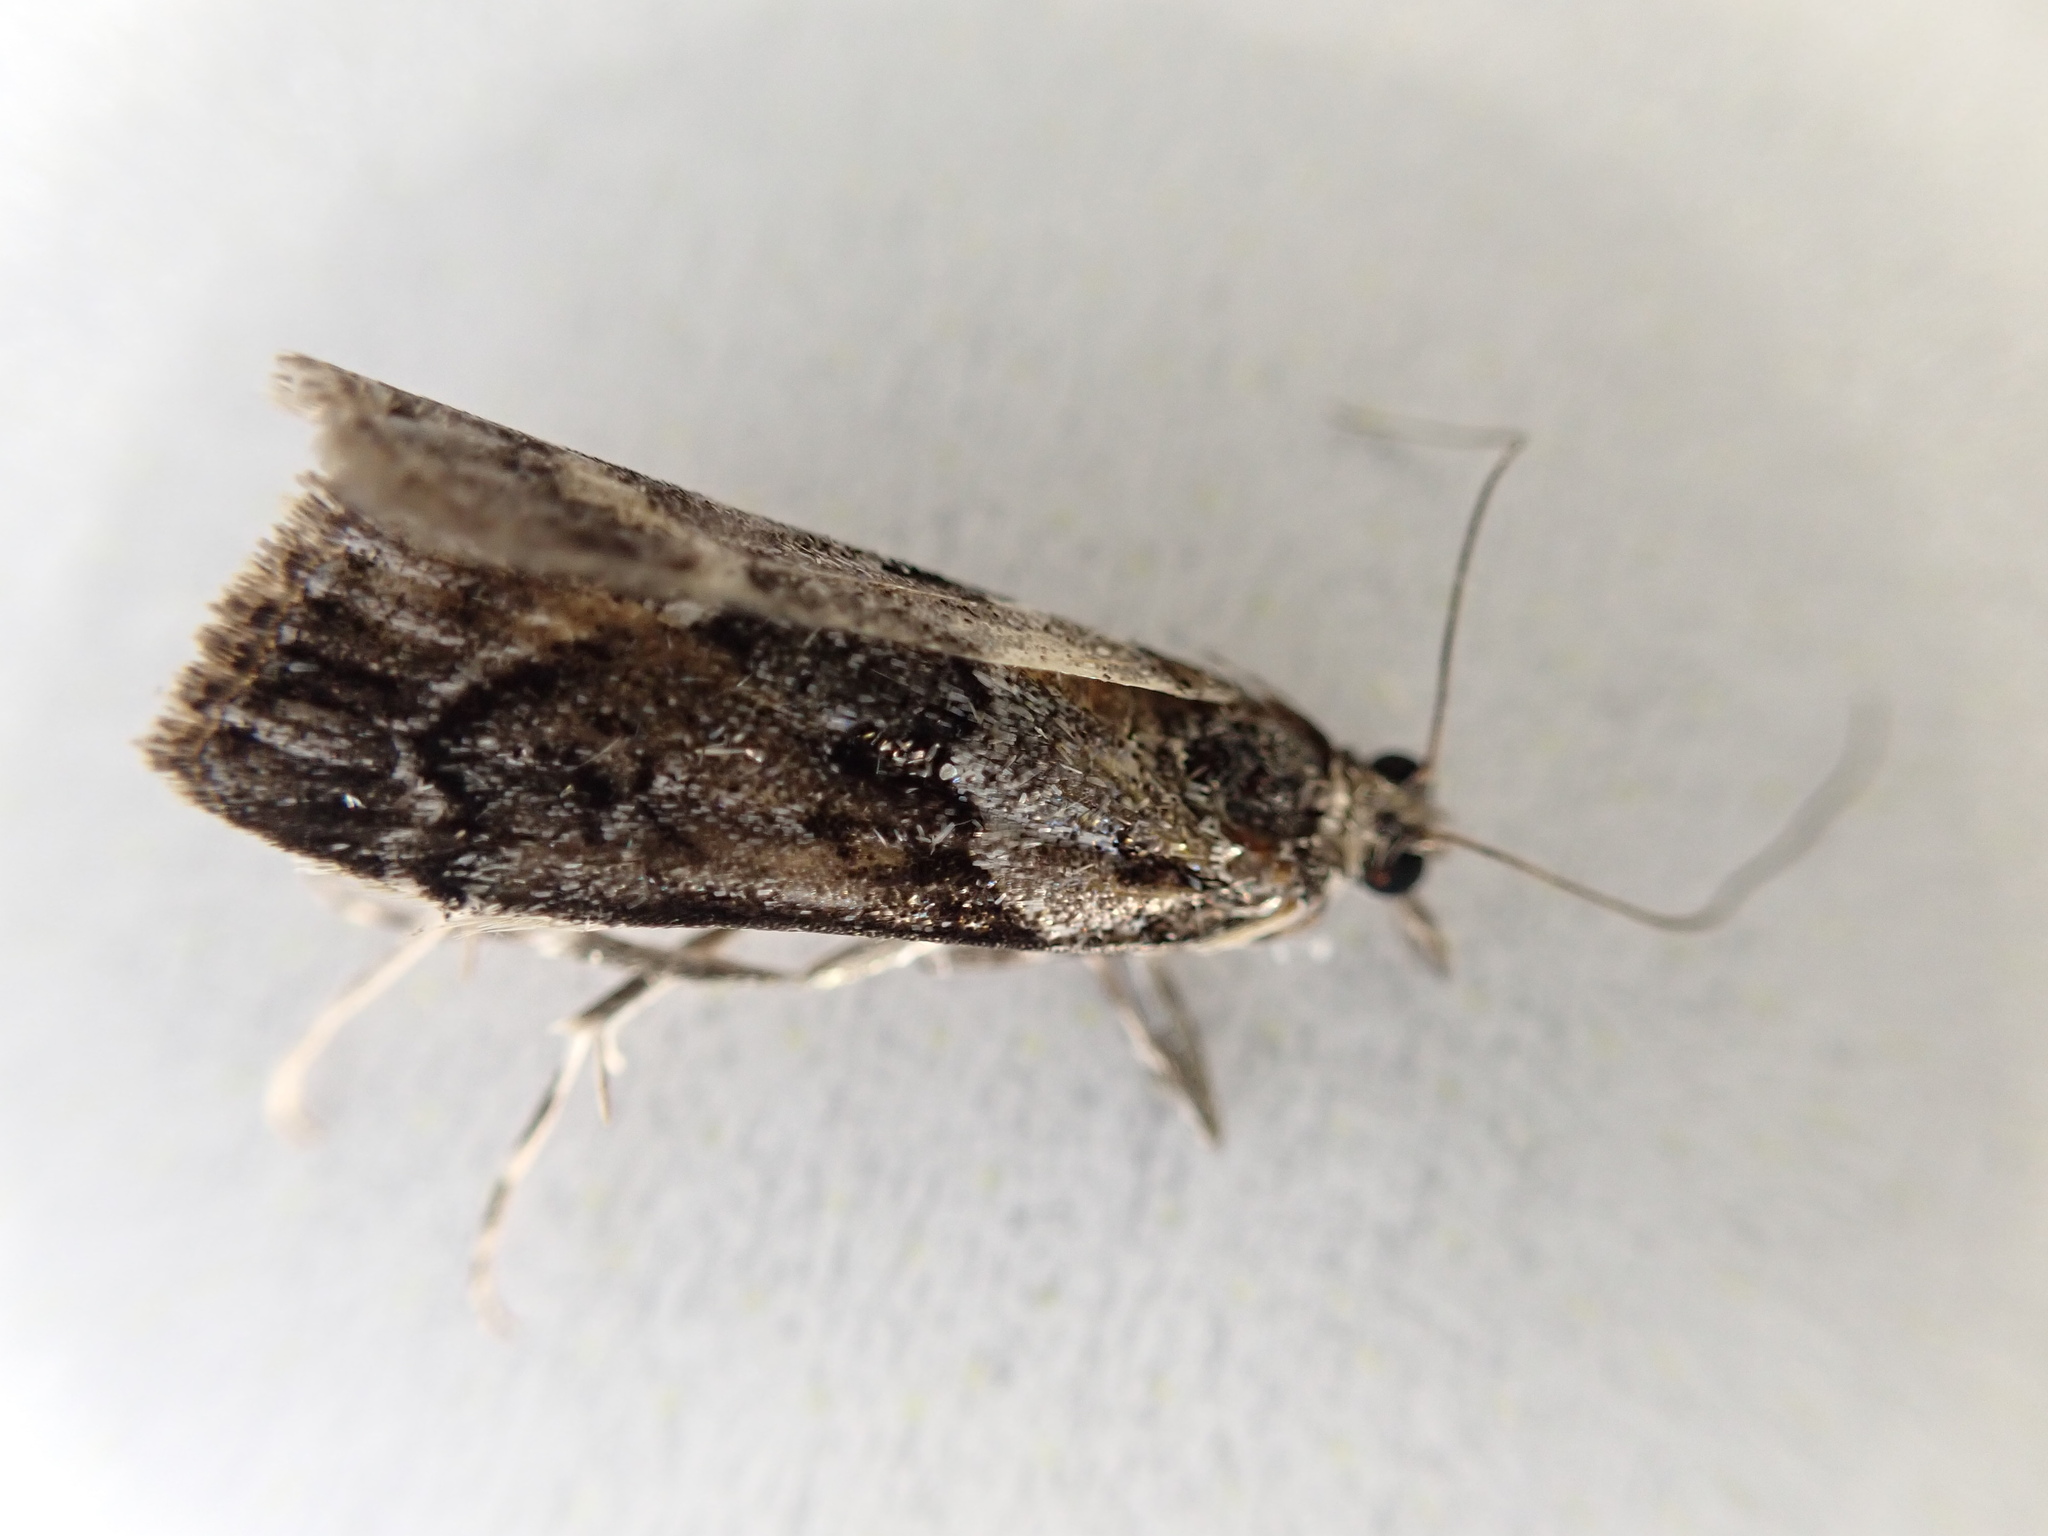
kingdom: Animalia
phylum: Arthropoda
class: Insecta
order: Lepidoptera
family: Crambidae
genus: Eudonia
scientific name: Eudonia submarginalis
